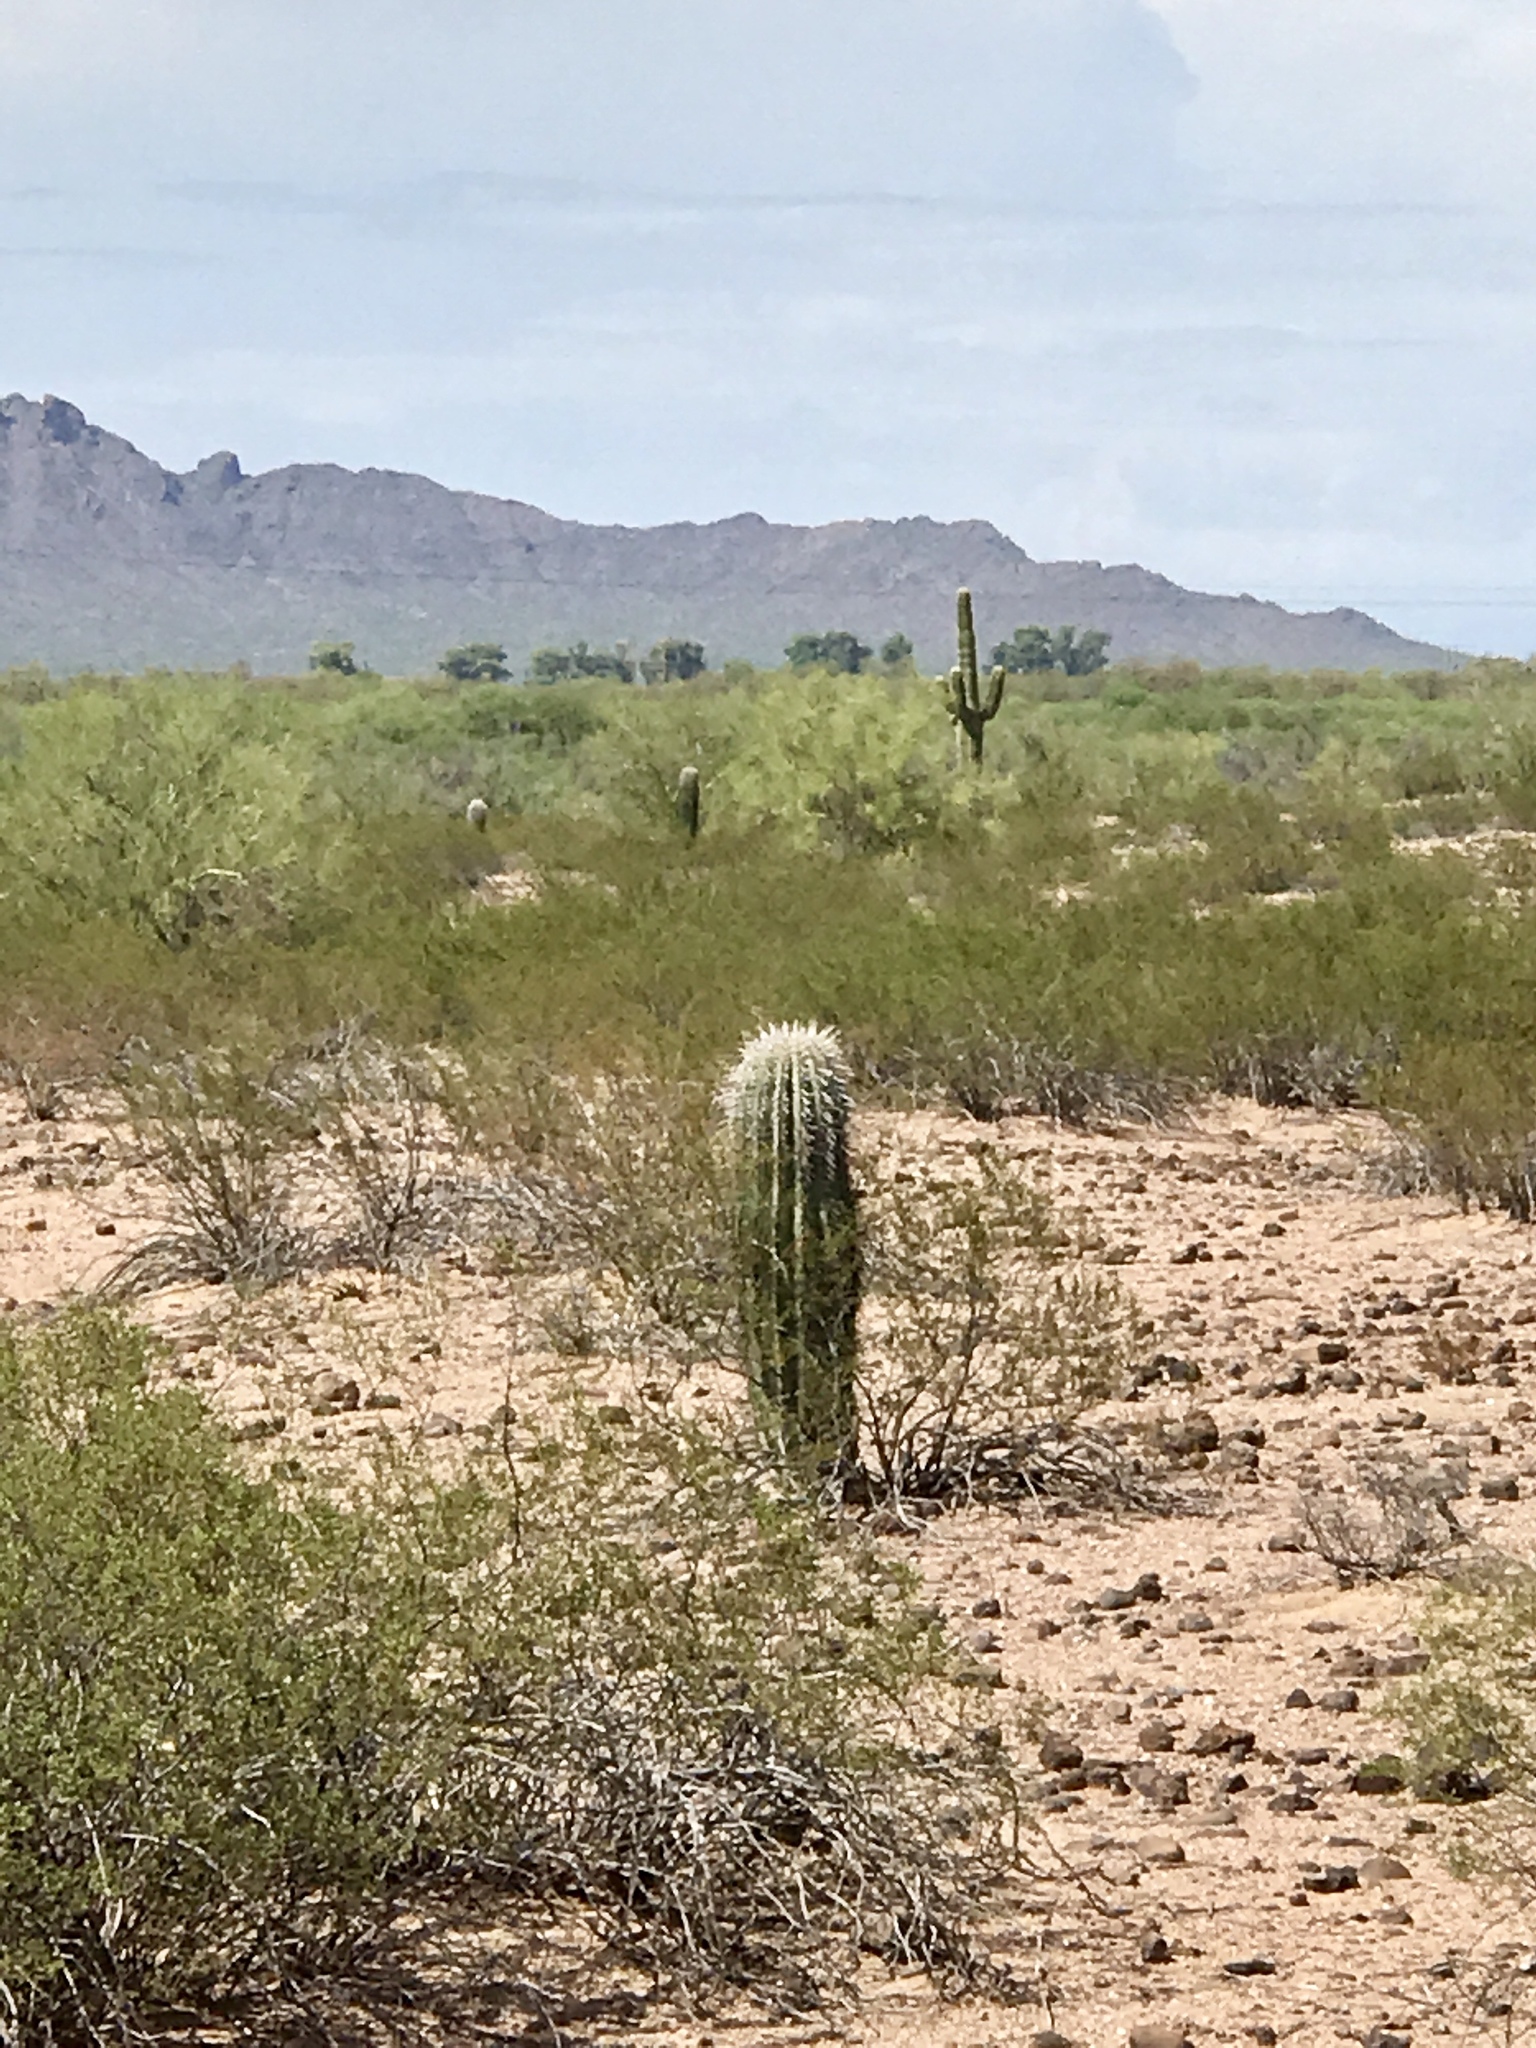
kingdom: Plantae
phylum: Tracheophyta
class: Magnoliopsida
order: Caryophyllales
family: Cactaceae
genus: Carnegiea
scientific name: Carnegiea gigantea
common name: Saguaro
